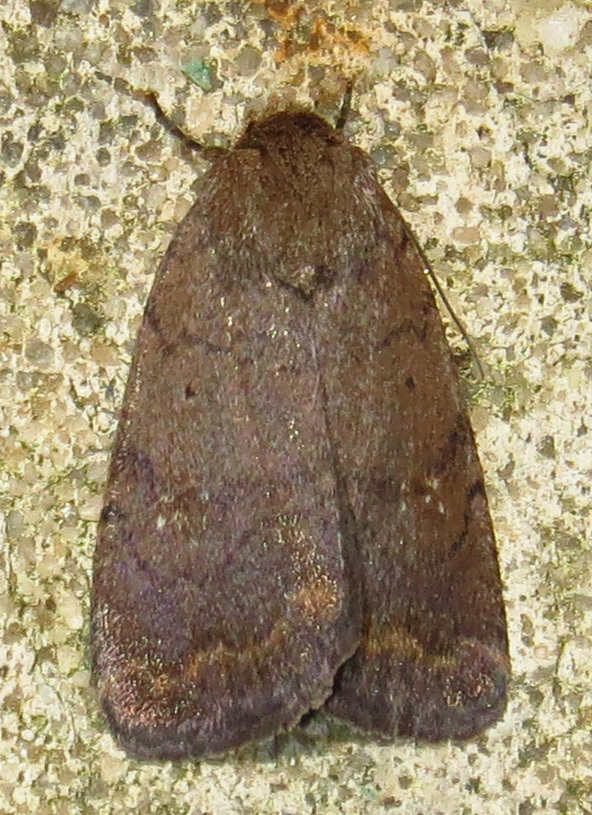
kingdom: Animalia
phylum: Arthropoda
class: Insecta
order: Lepidoptera
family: Noctuidae
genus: Athetis
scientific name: Athetis tarda
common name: Slowpoke moth
